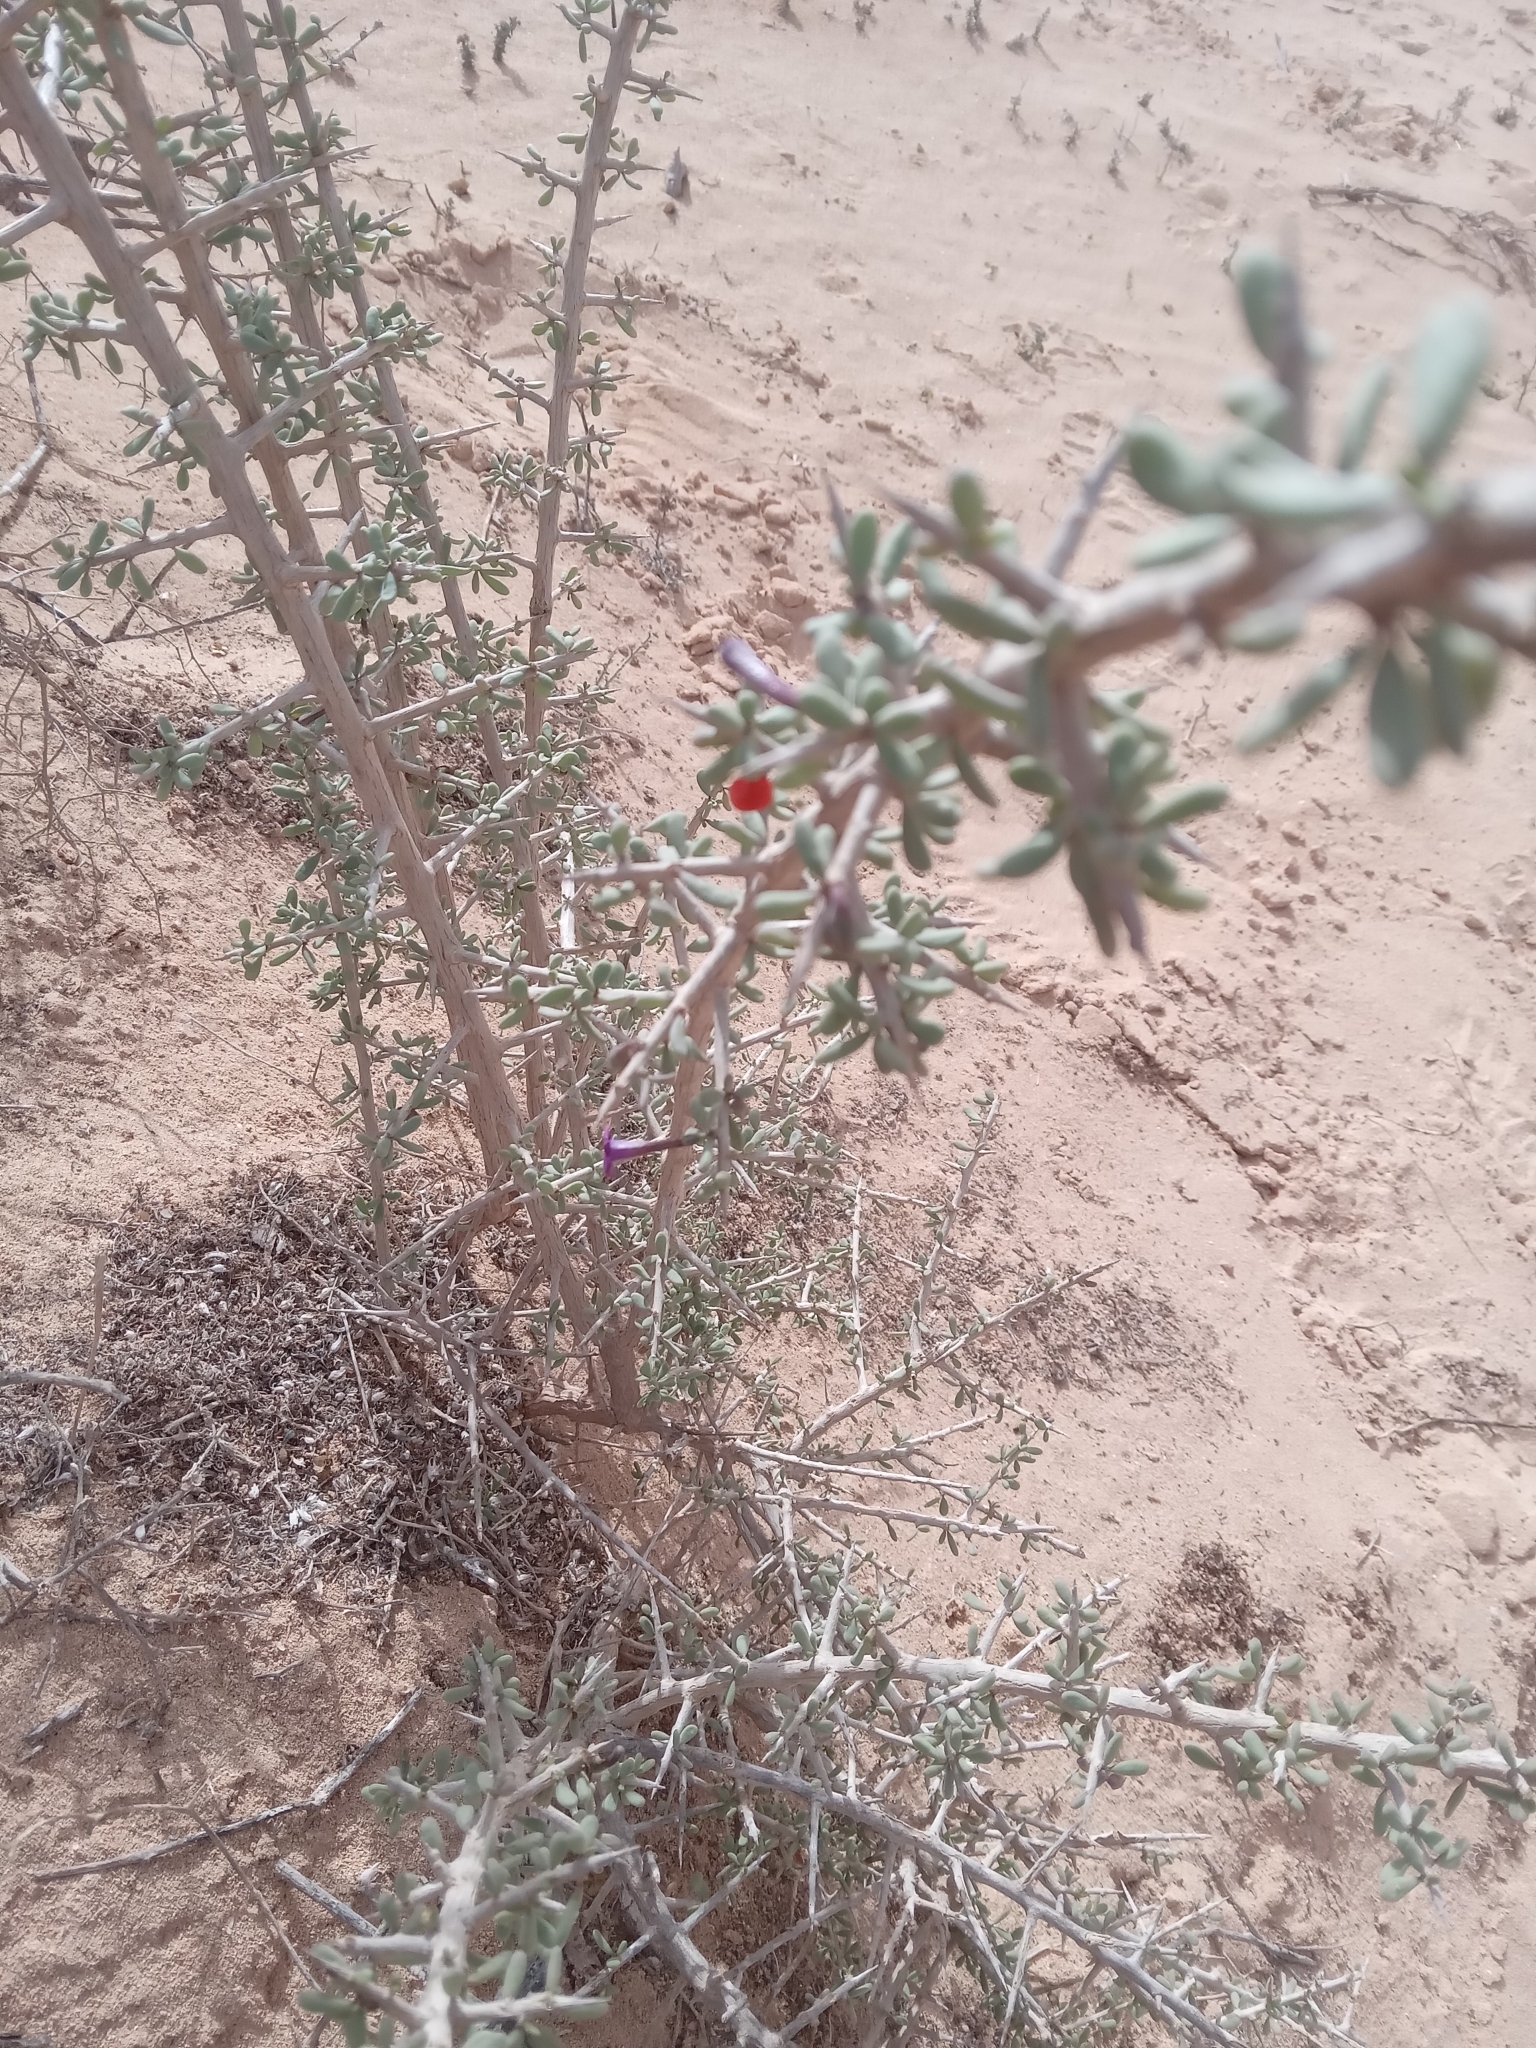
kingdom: Plantae
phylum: Tracheophyta
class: Magnoliopsida
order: Solanales
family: Solanaceae
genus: Lycium
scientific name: Lycium intricatum
